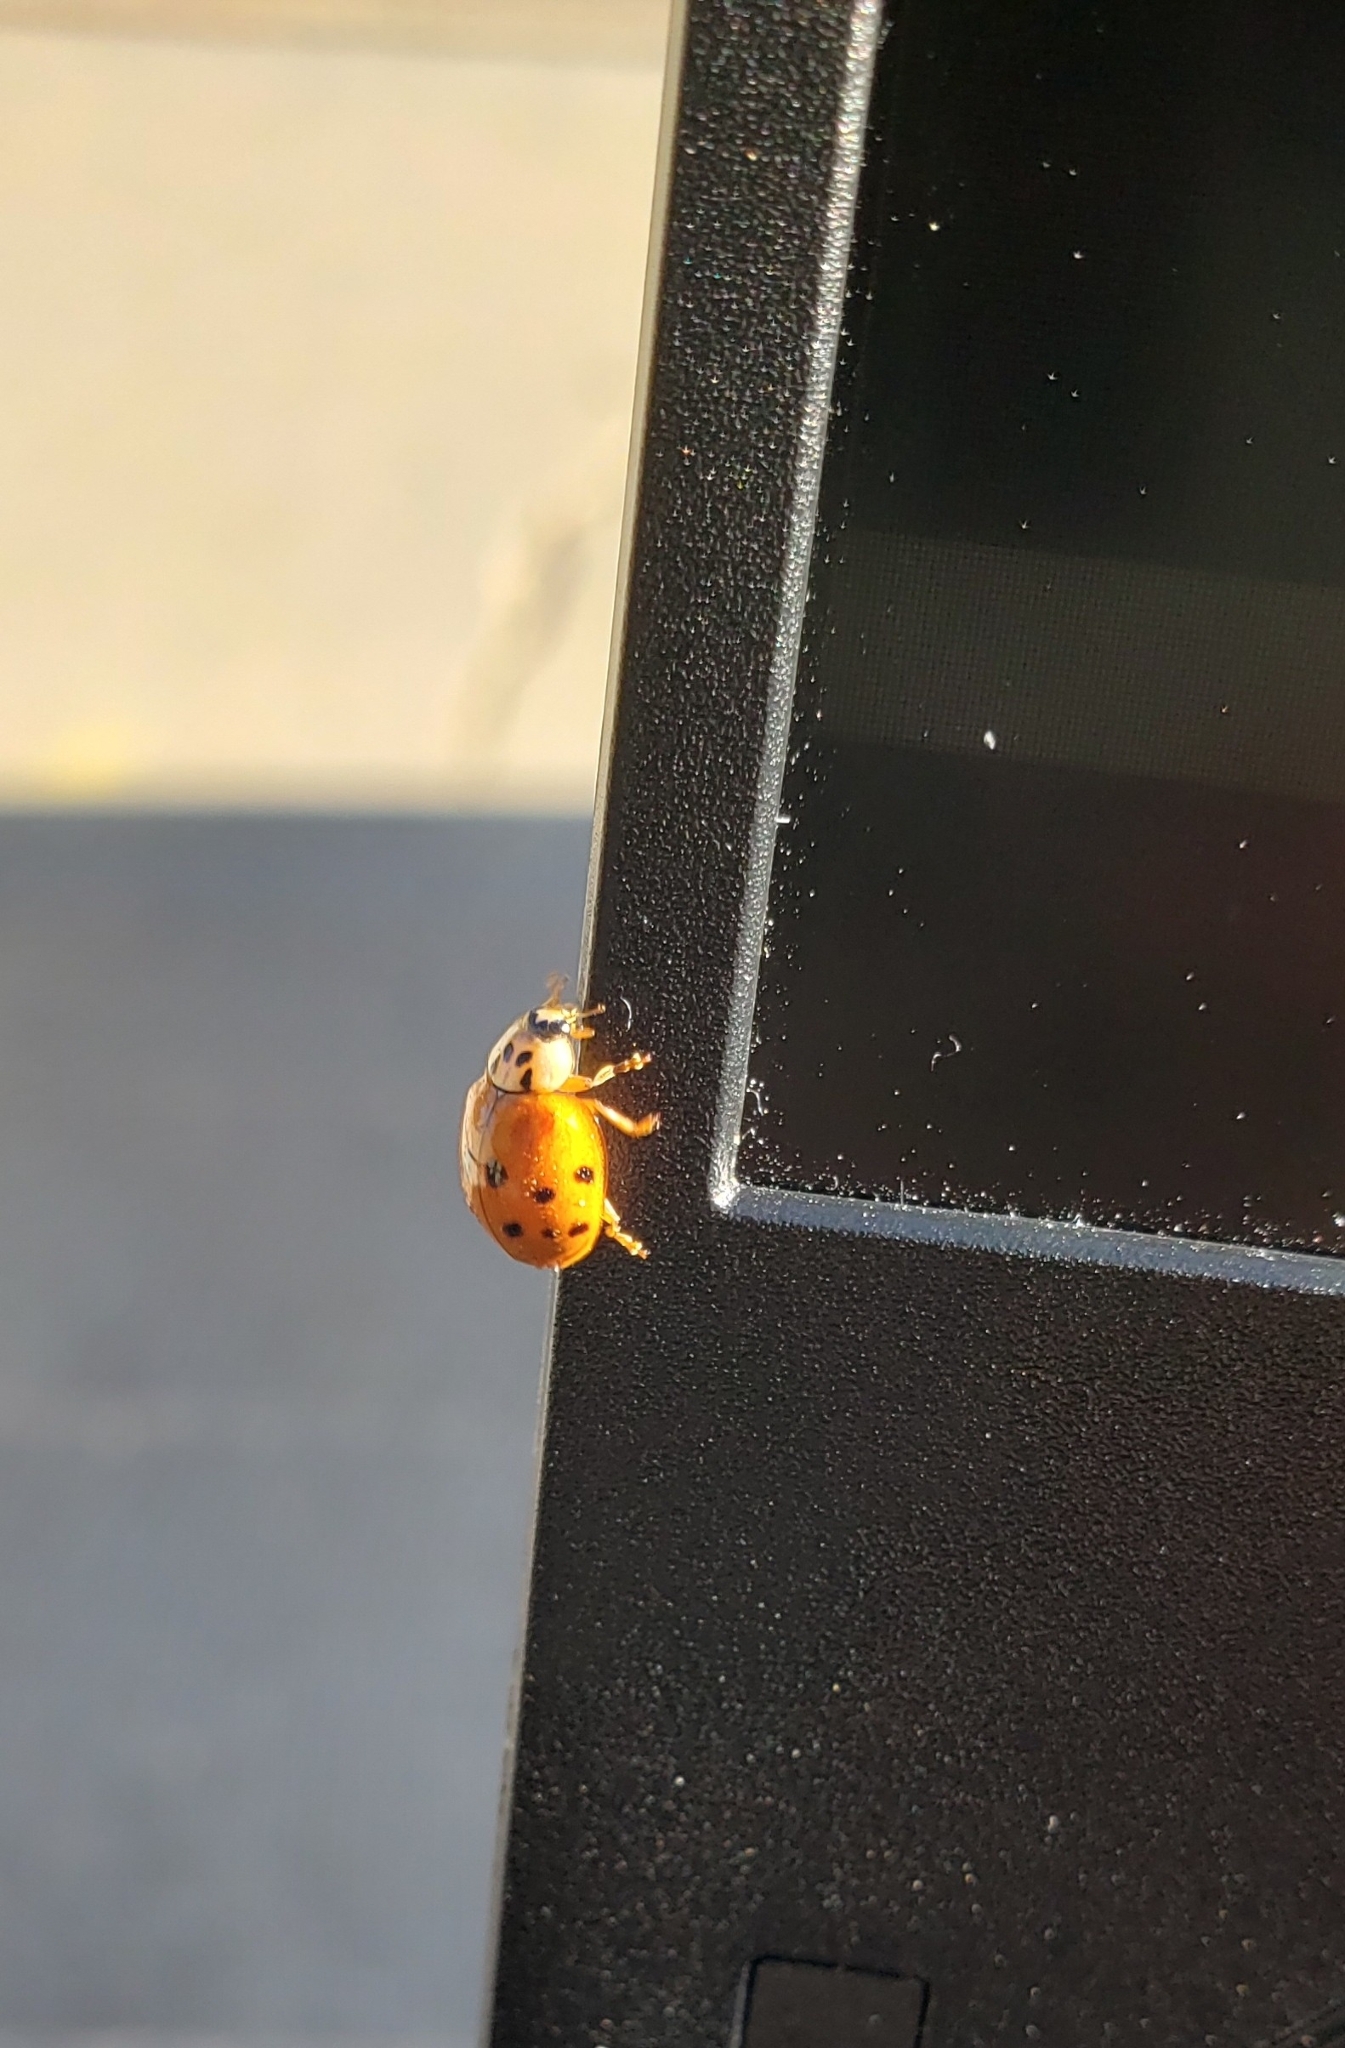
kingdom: Animalia
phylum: Arthropoda
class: Insecta
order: Coleoptera
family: Coccinellidae
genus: Harmonia
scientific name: Harmonia axyridis
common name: Harlequin ladybird
